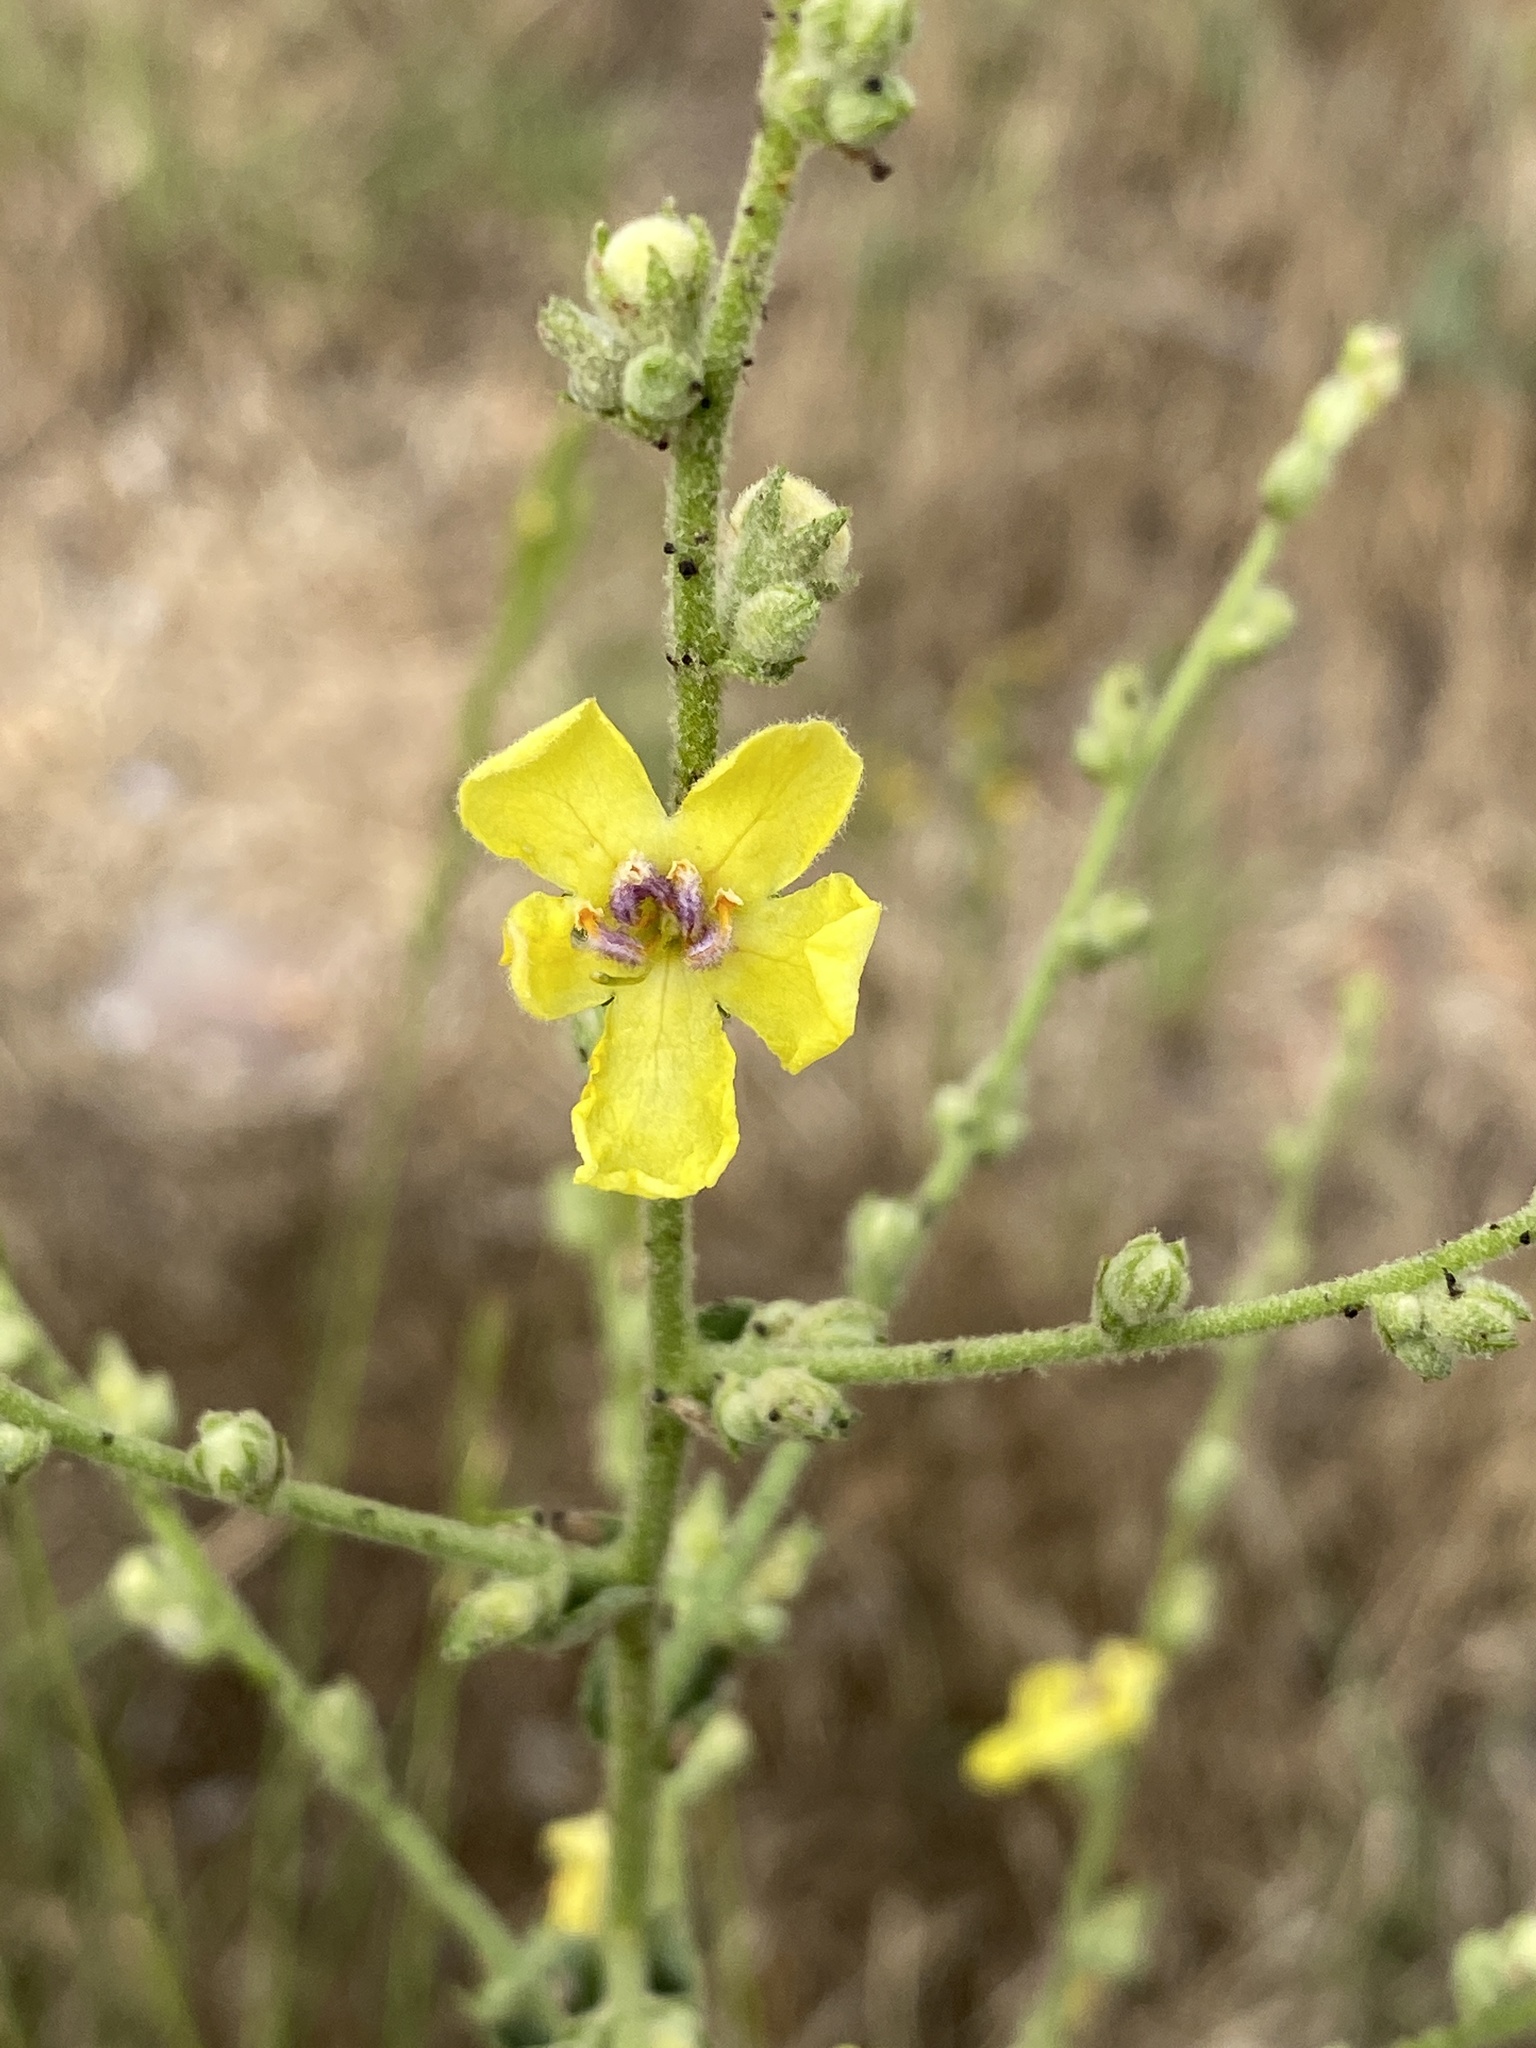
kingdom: Plantae
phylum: Tracheophyta
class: Magnoliopsida
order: Lamiales
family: Scrophulariaceae
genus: Verbascum
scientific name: Verbascum sinuatum
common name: Wavyleaf mullein
